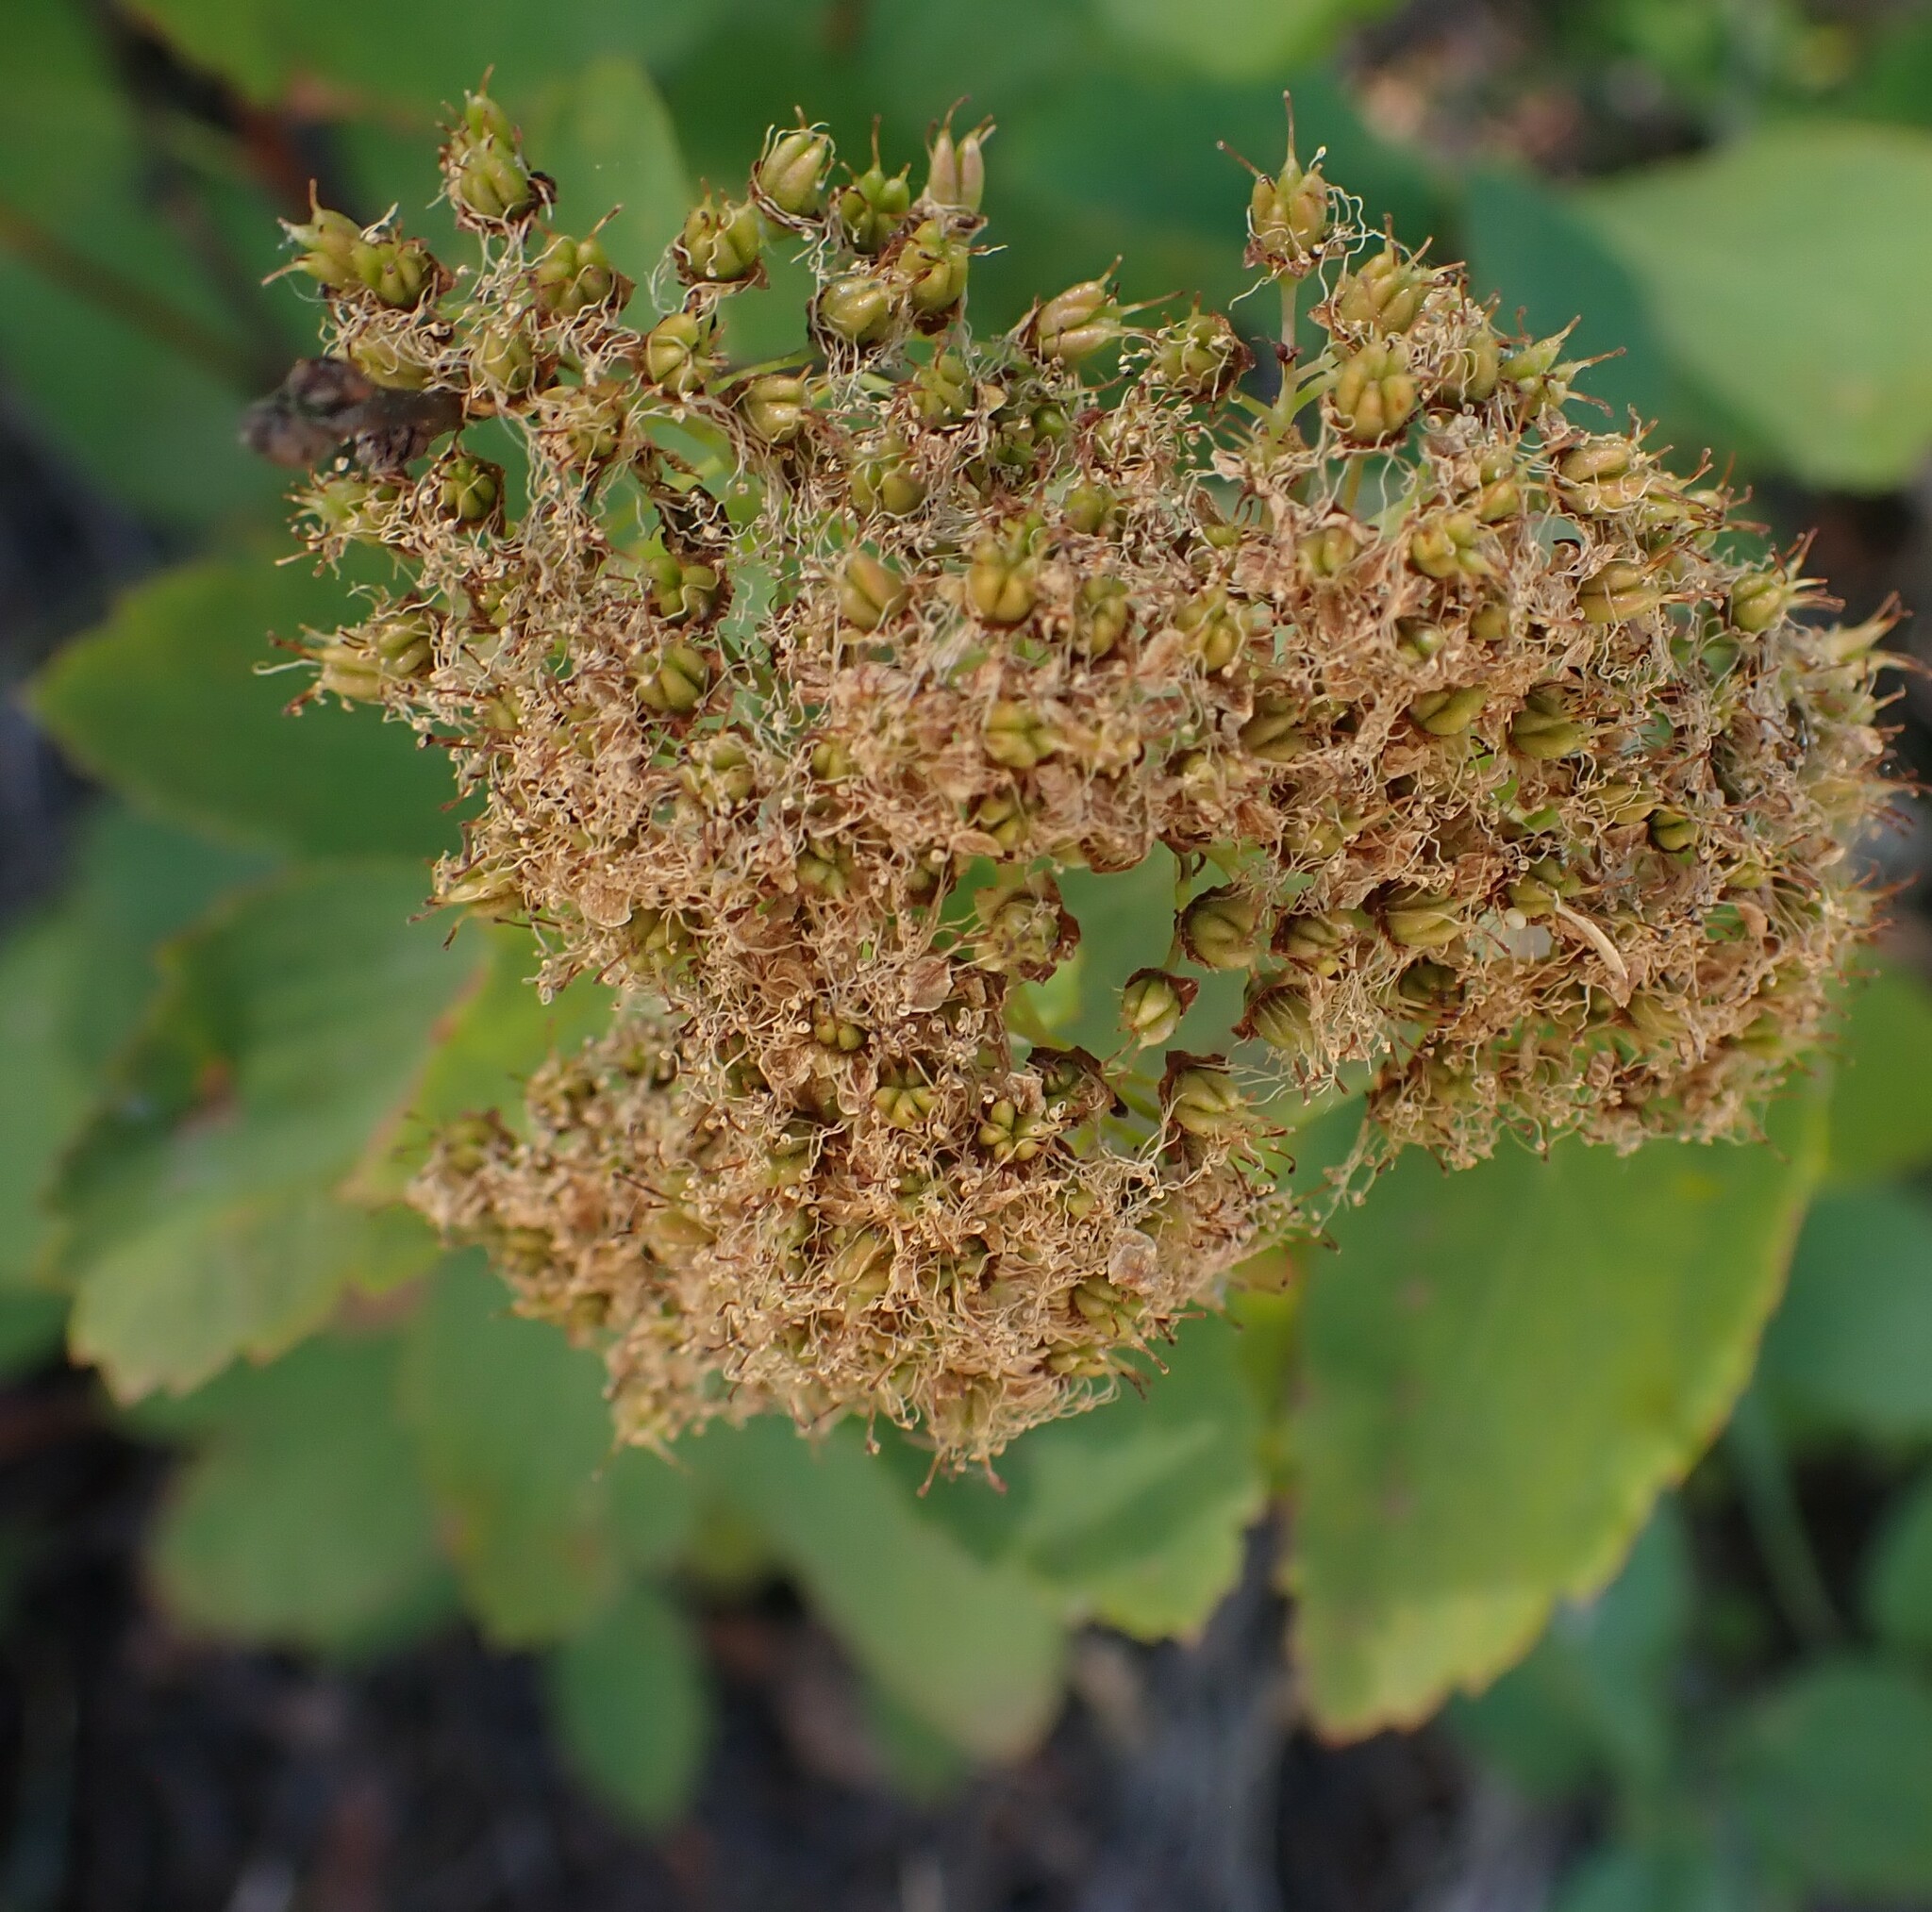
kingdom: Plantae
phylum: Tracheophyta
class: Magnoliopsida
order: Rosales
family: Rosaceae
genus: Spiraea
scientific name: Spiraea lucida
